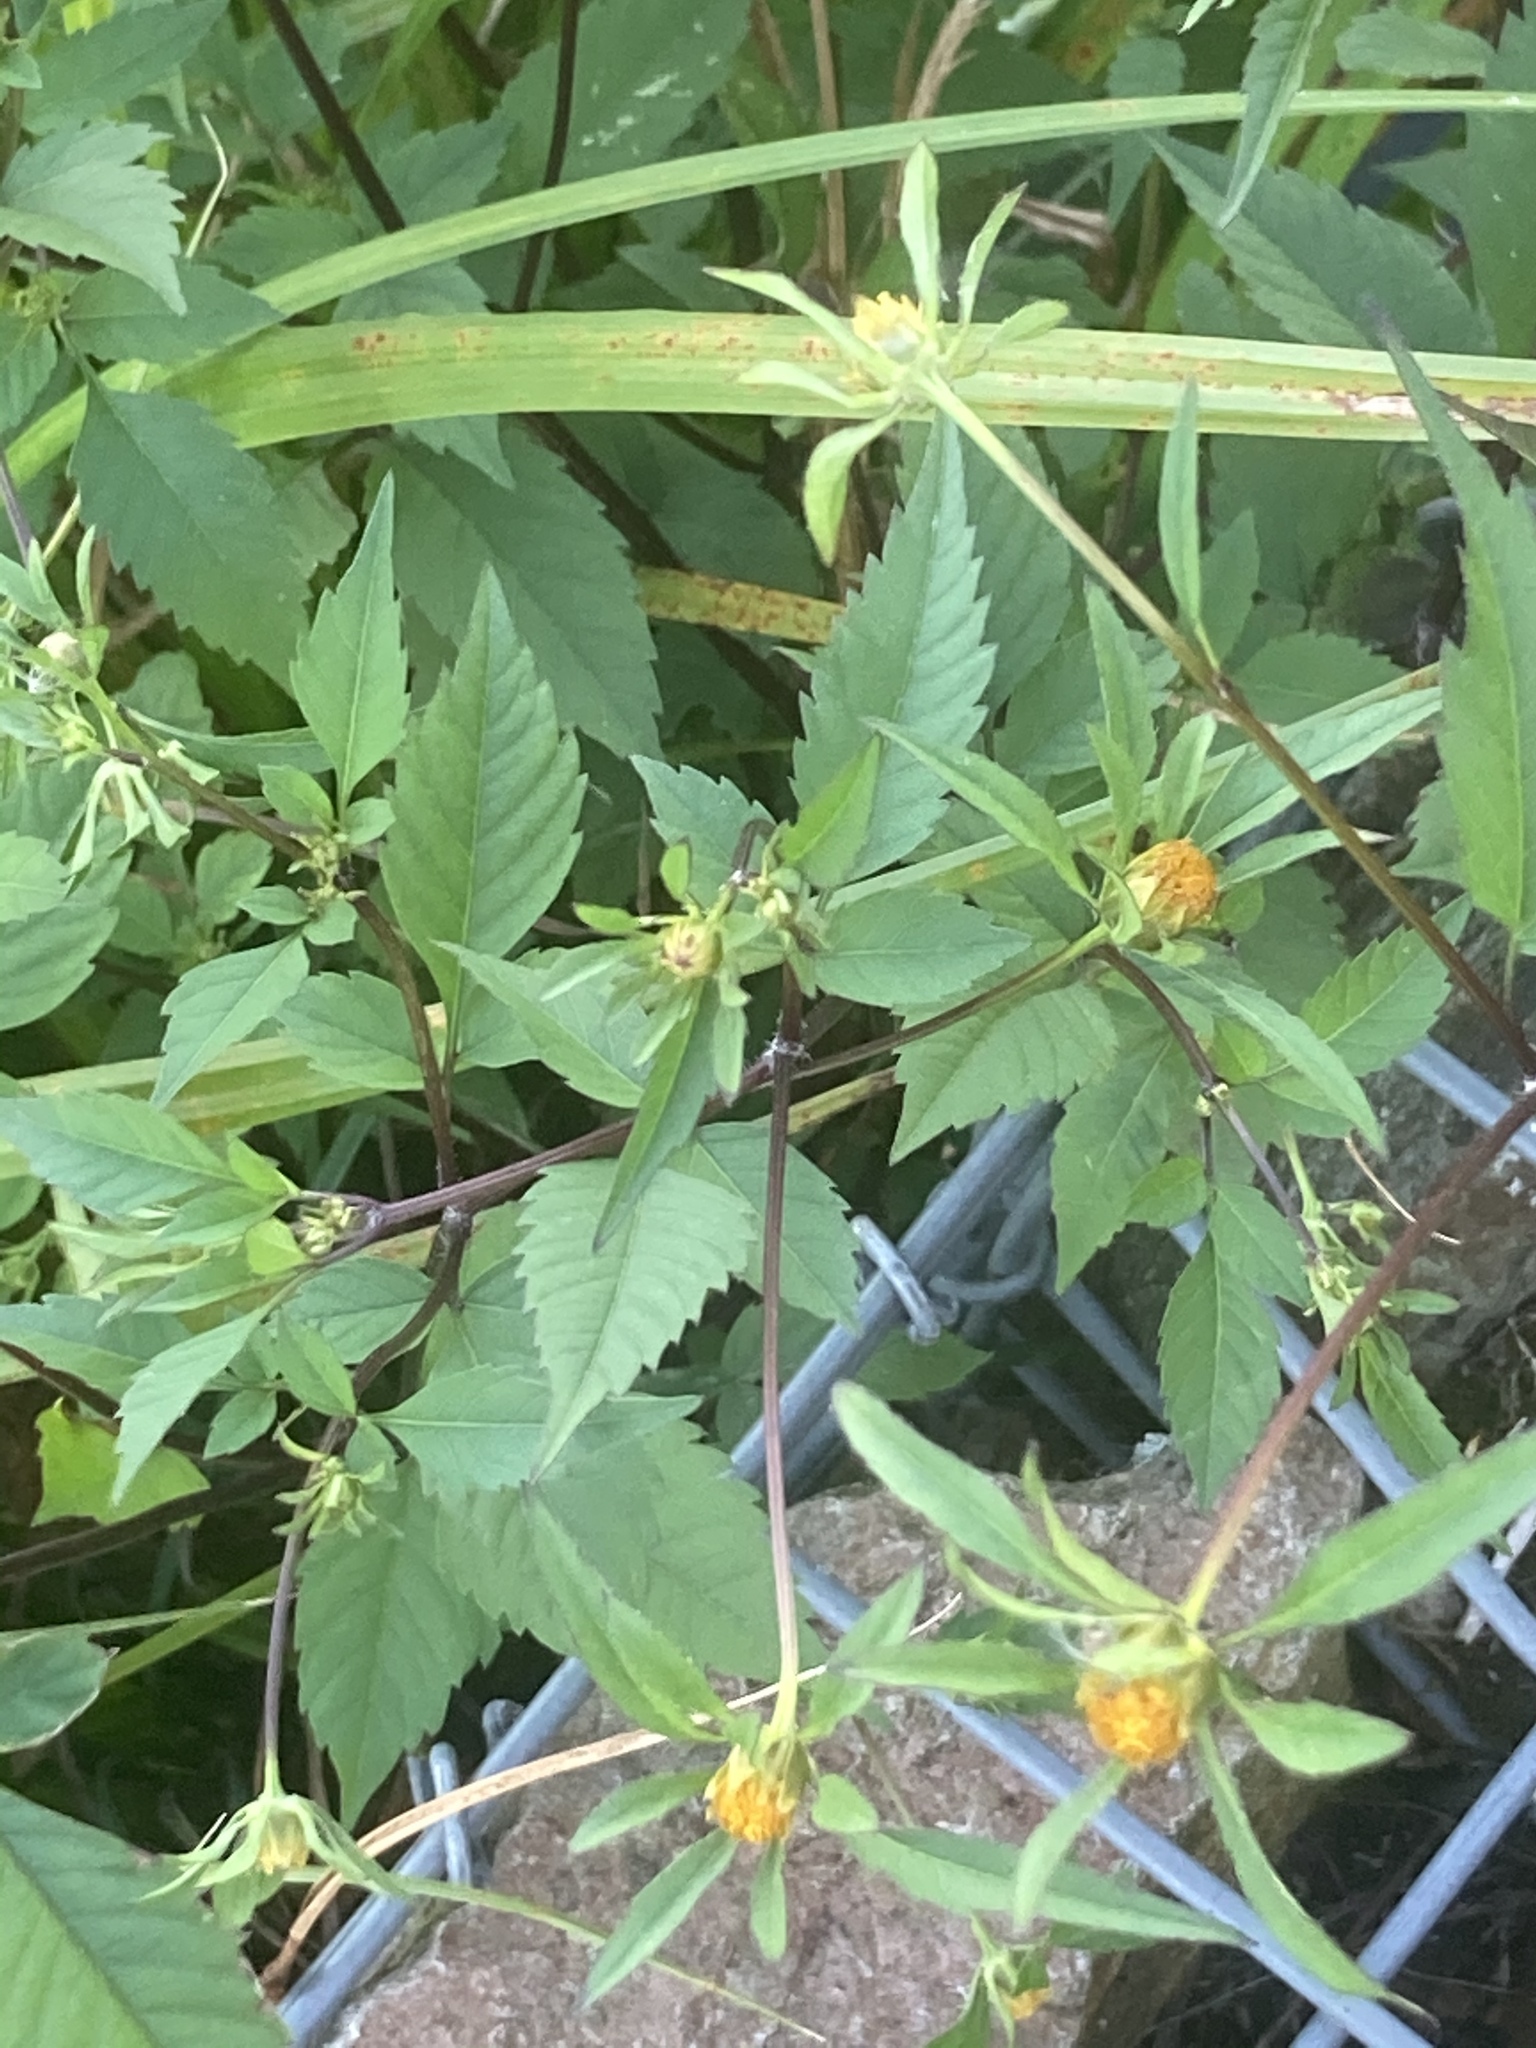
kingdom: Plantae
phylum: Tracheophyta
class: Magnoliopsida
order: Asterales
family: Asteraceae
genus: Bidens
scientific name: Bidens frondosa
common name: Beggarticks
